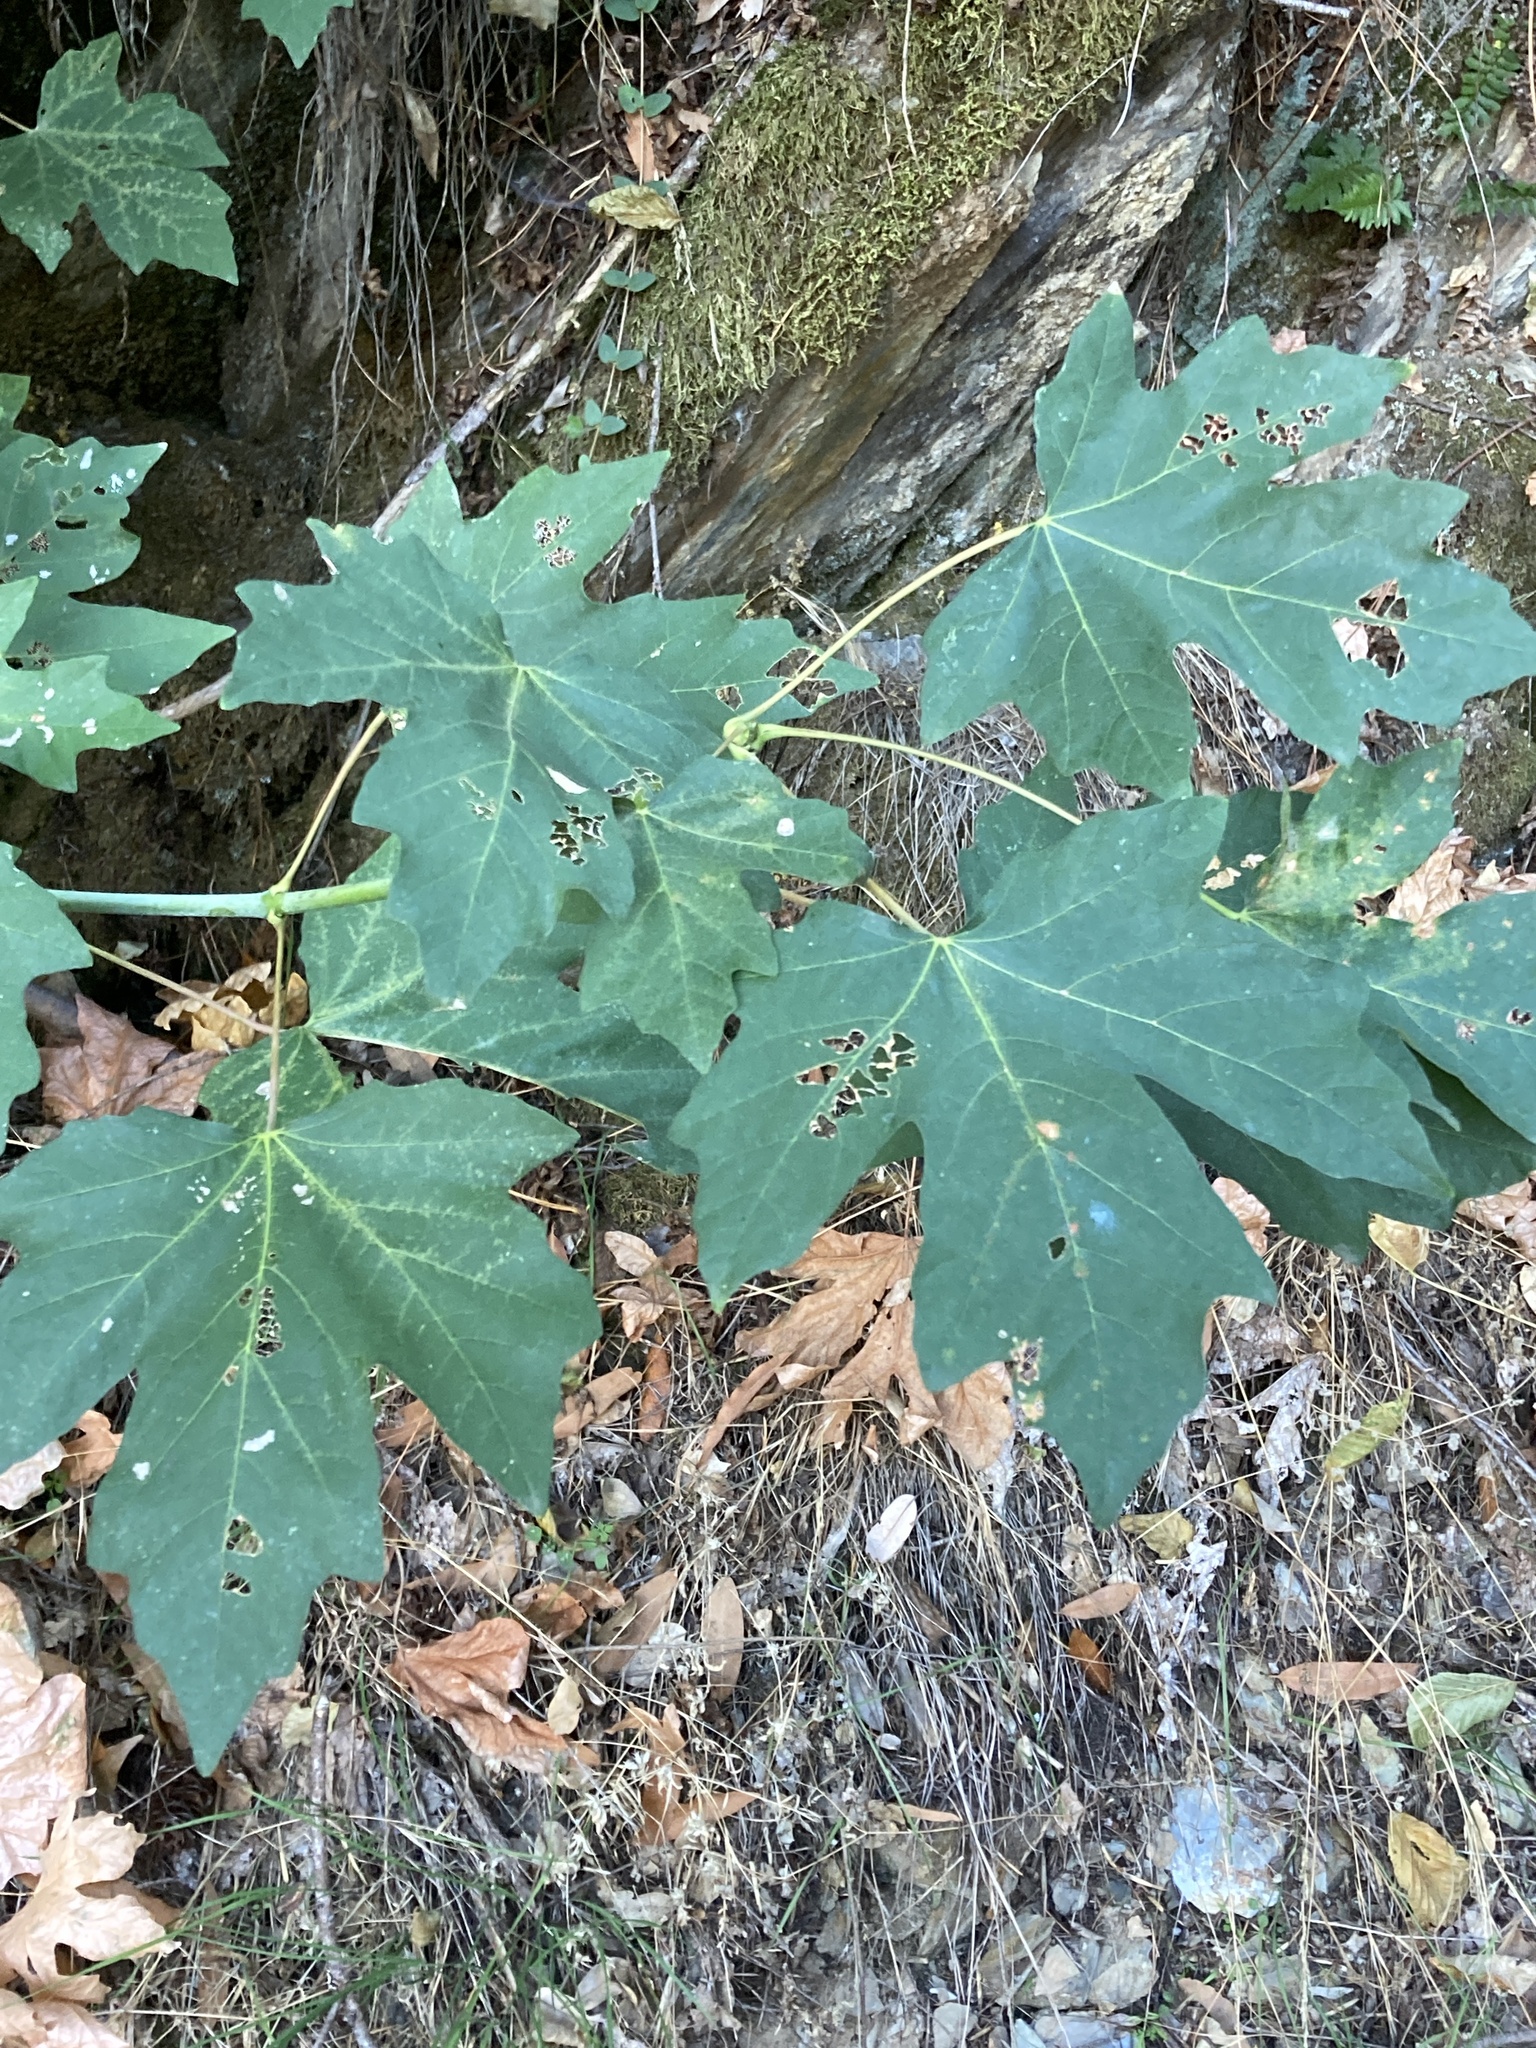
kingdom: Plantae
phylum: Tracheophyta
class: Magnoliopsida
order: Sapindales
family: Sapindaceae
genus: Acer
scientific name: Acer macrophyllum
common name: Oregon maple
